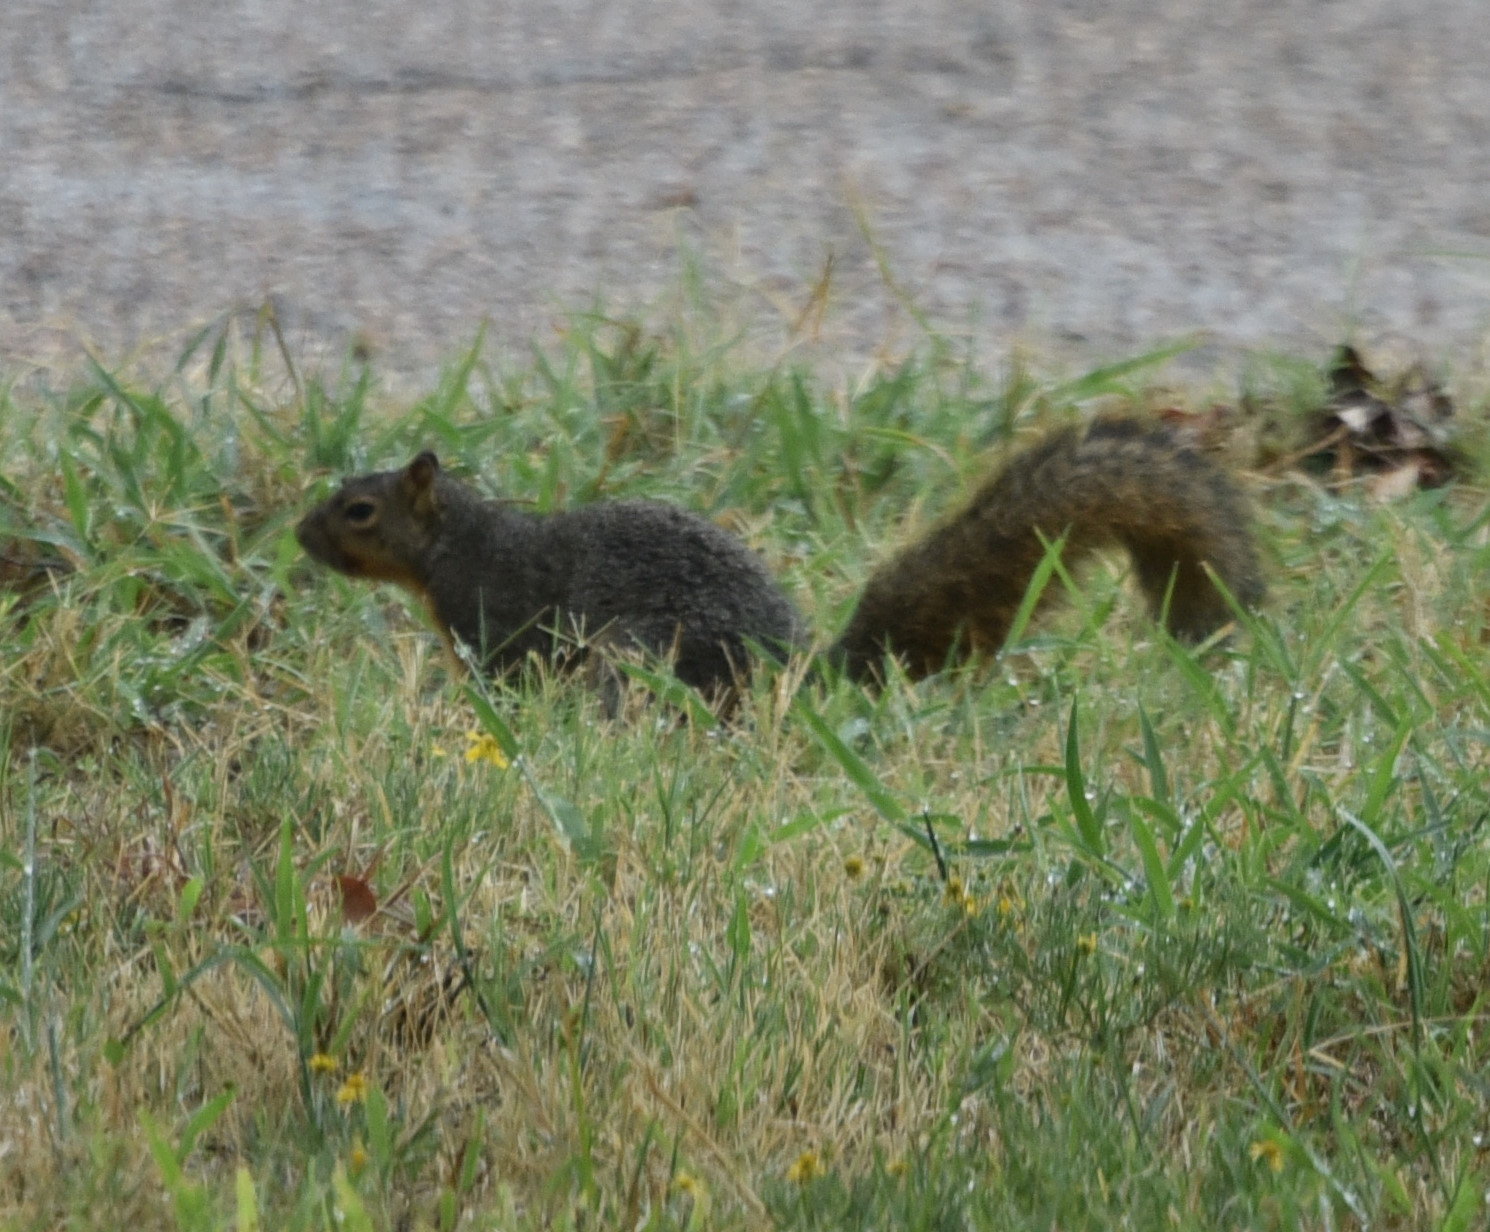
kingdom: Animalia
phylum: Chordata
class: Mammalia
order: Rodentia
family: Sciuridae
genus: Sciurus
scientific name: Sciurus niger
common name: Fox squirrel
